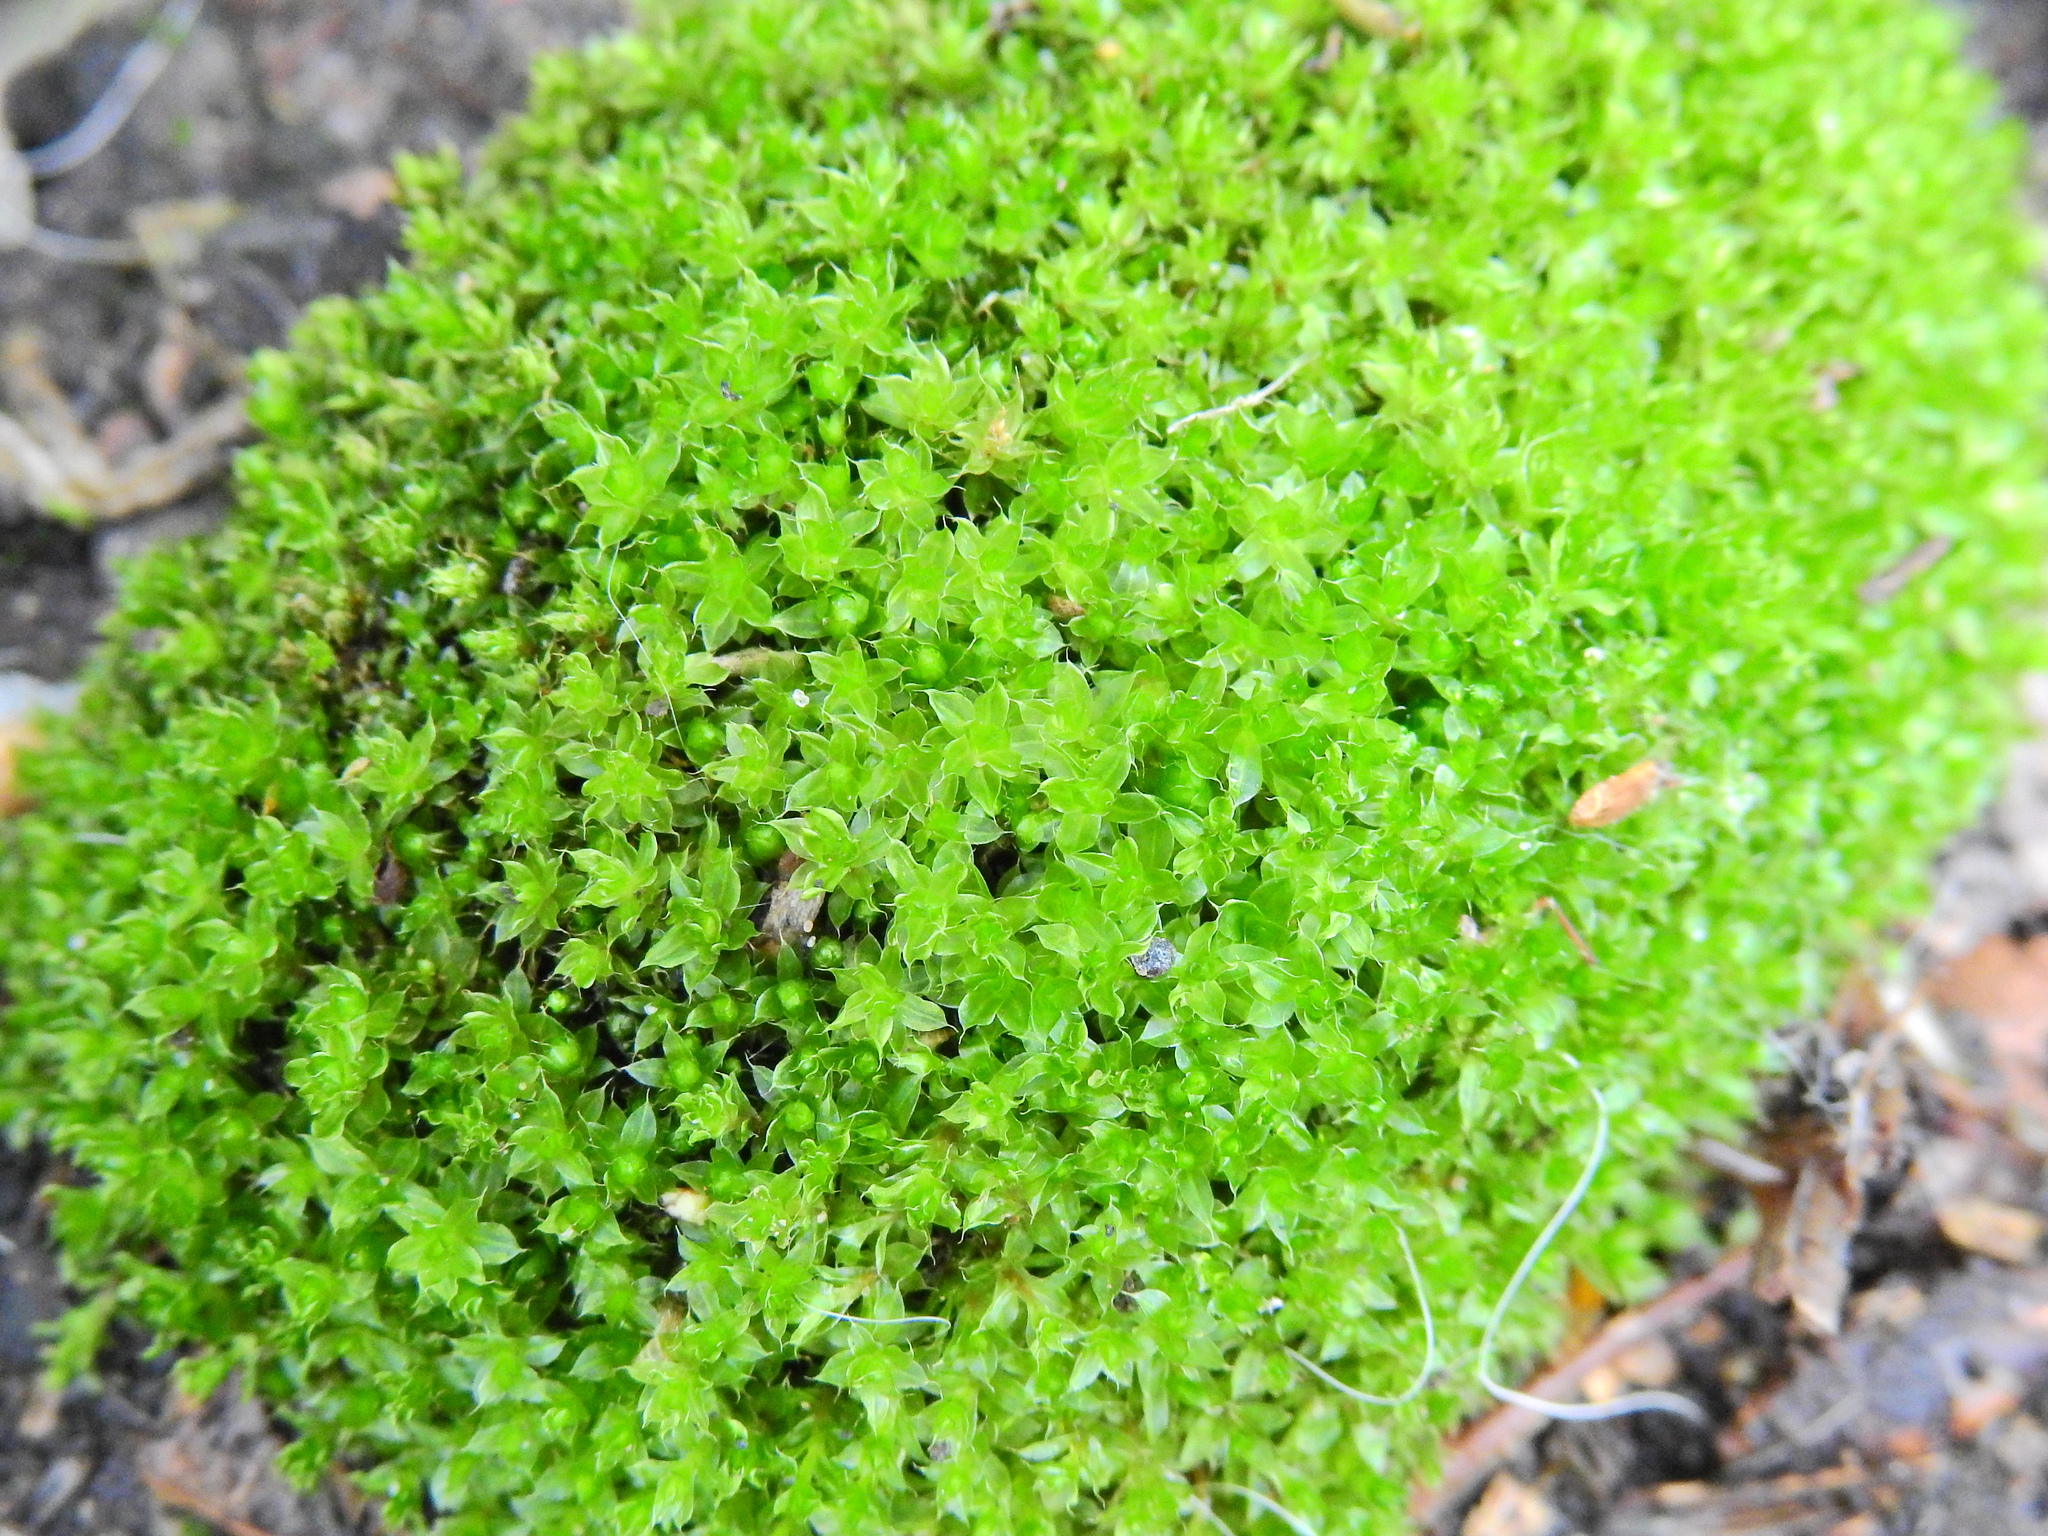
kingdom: Plantae
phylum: Bryophyta
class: Bryopsida
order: Bryales
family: Bryaceae
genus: Rosulabryum
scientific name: Rosulabryum capillare
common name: Capillary thread-moss
